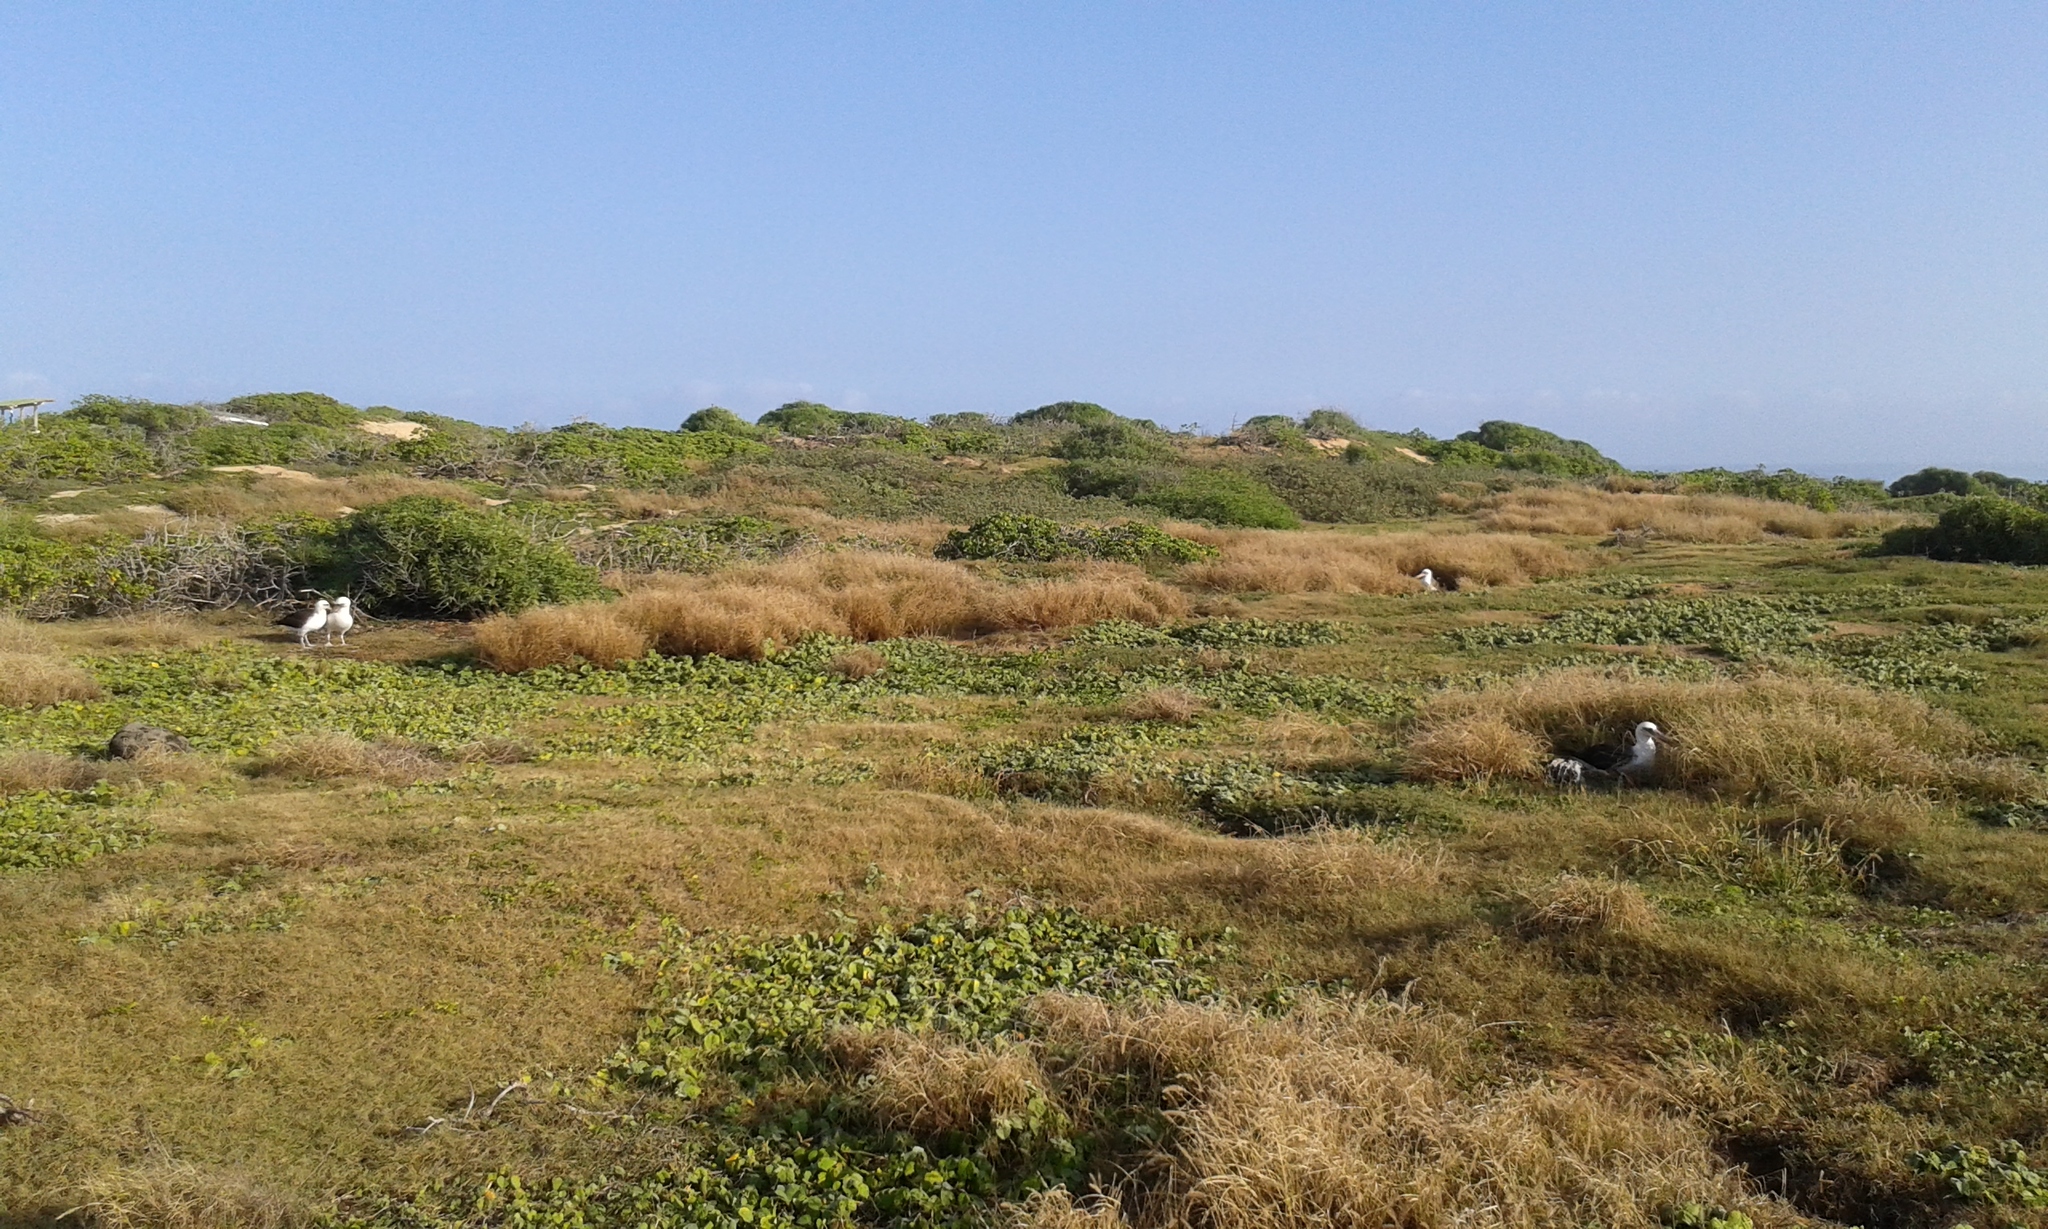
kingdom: Animalia
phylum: Chordata
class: Aves
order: Procellariiformes
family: Diomedeidae
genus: Phoebastria
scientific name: Phoebastria immutabilis
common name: Laysan albatross
